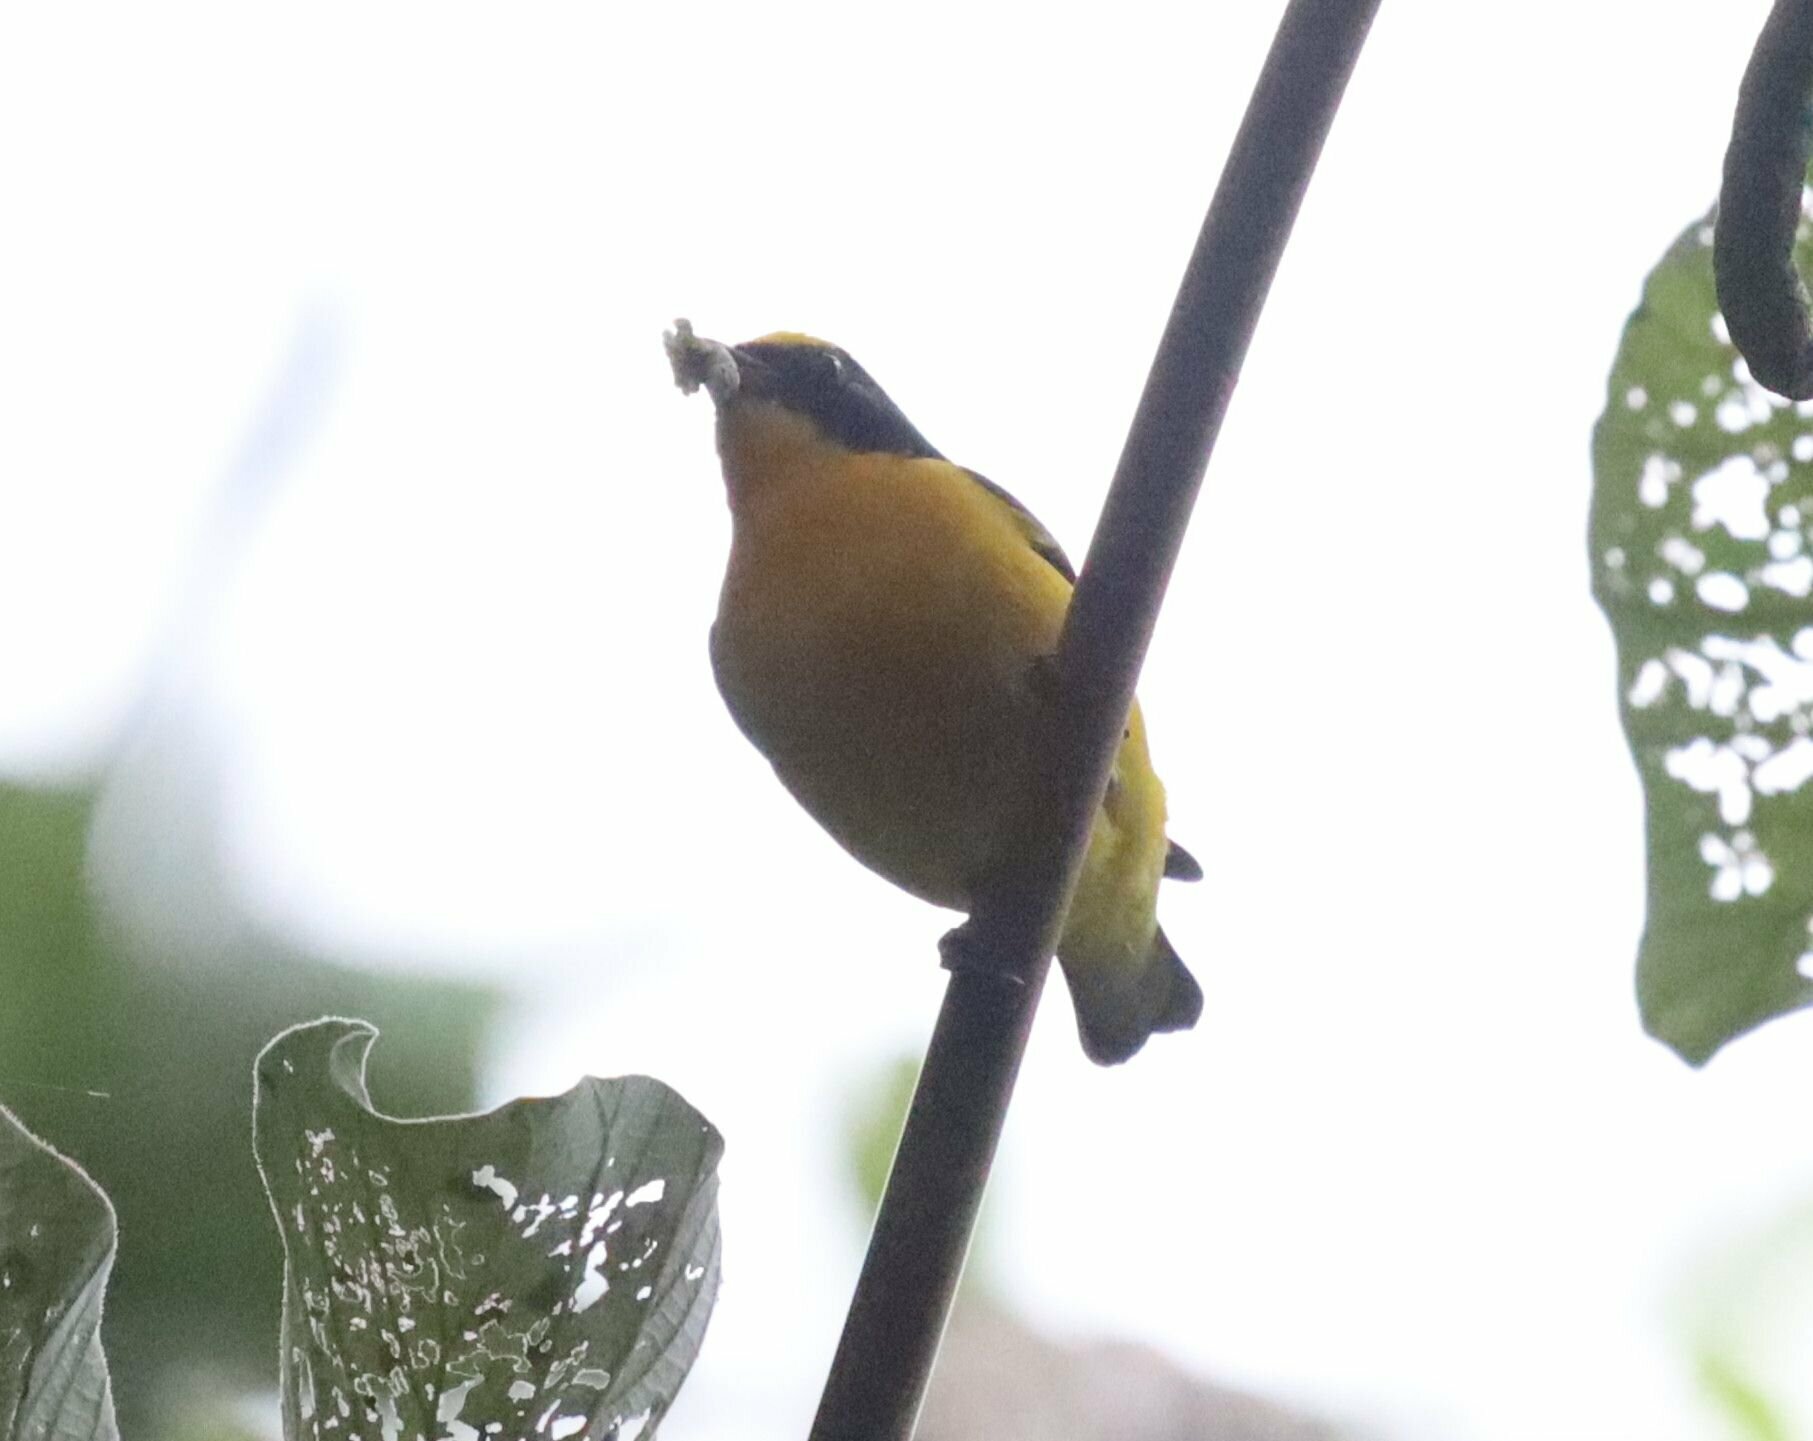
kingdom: Animalia
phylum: Chordata
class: Aves
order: Passeriformes
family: Fringillidae
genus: Euphonia
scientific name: Euphonia laniirostris
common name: Thick-billed euphonia
